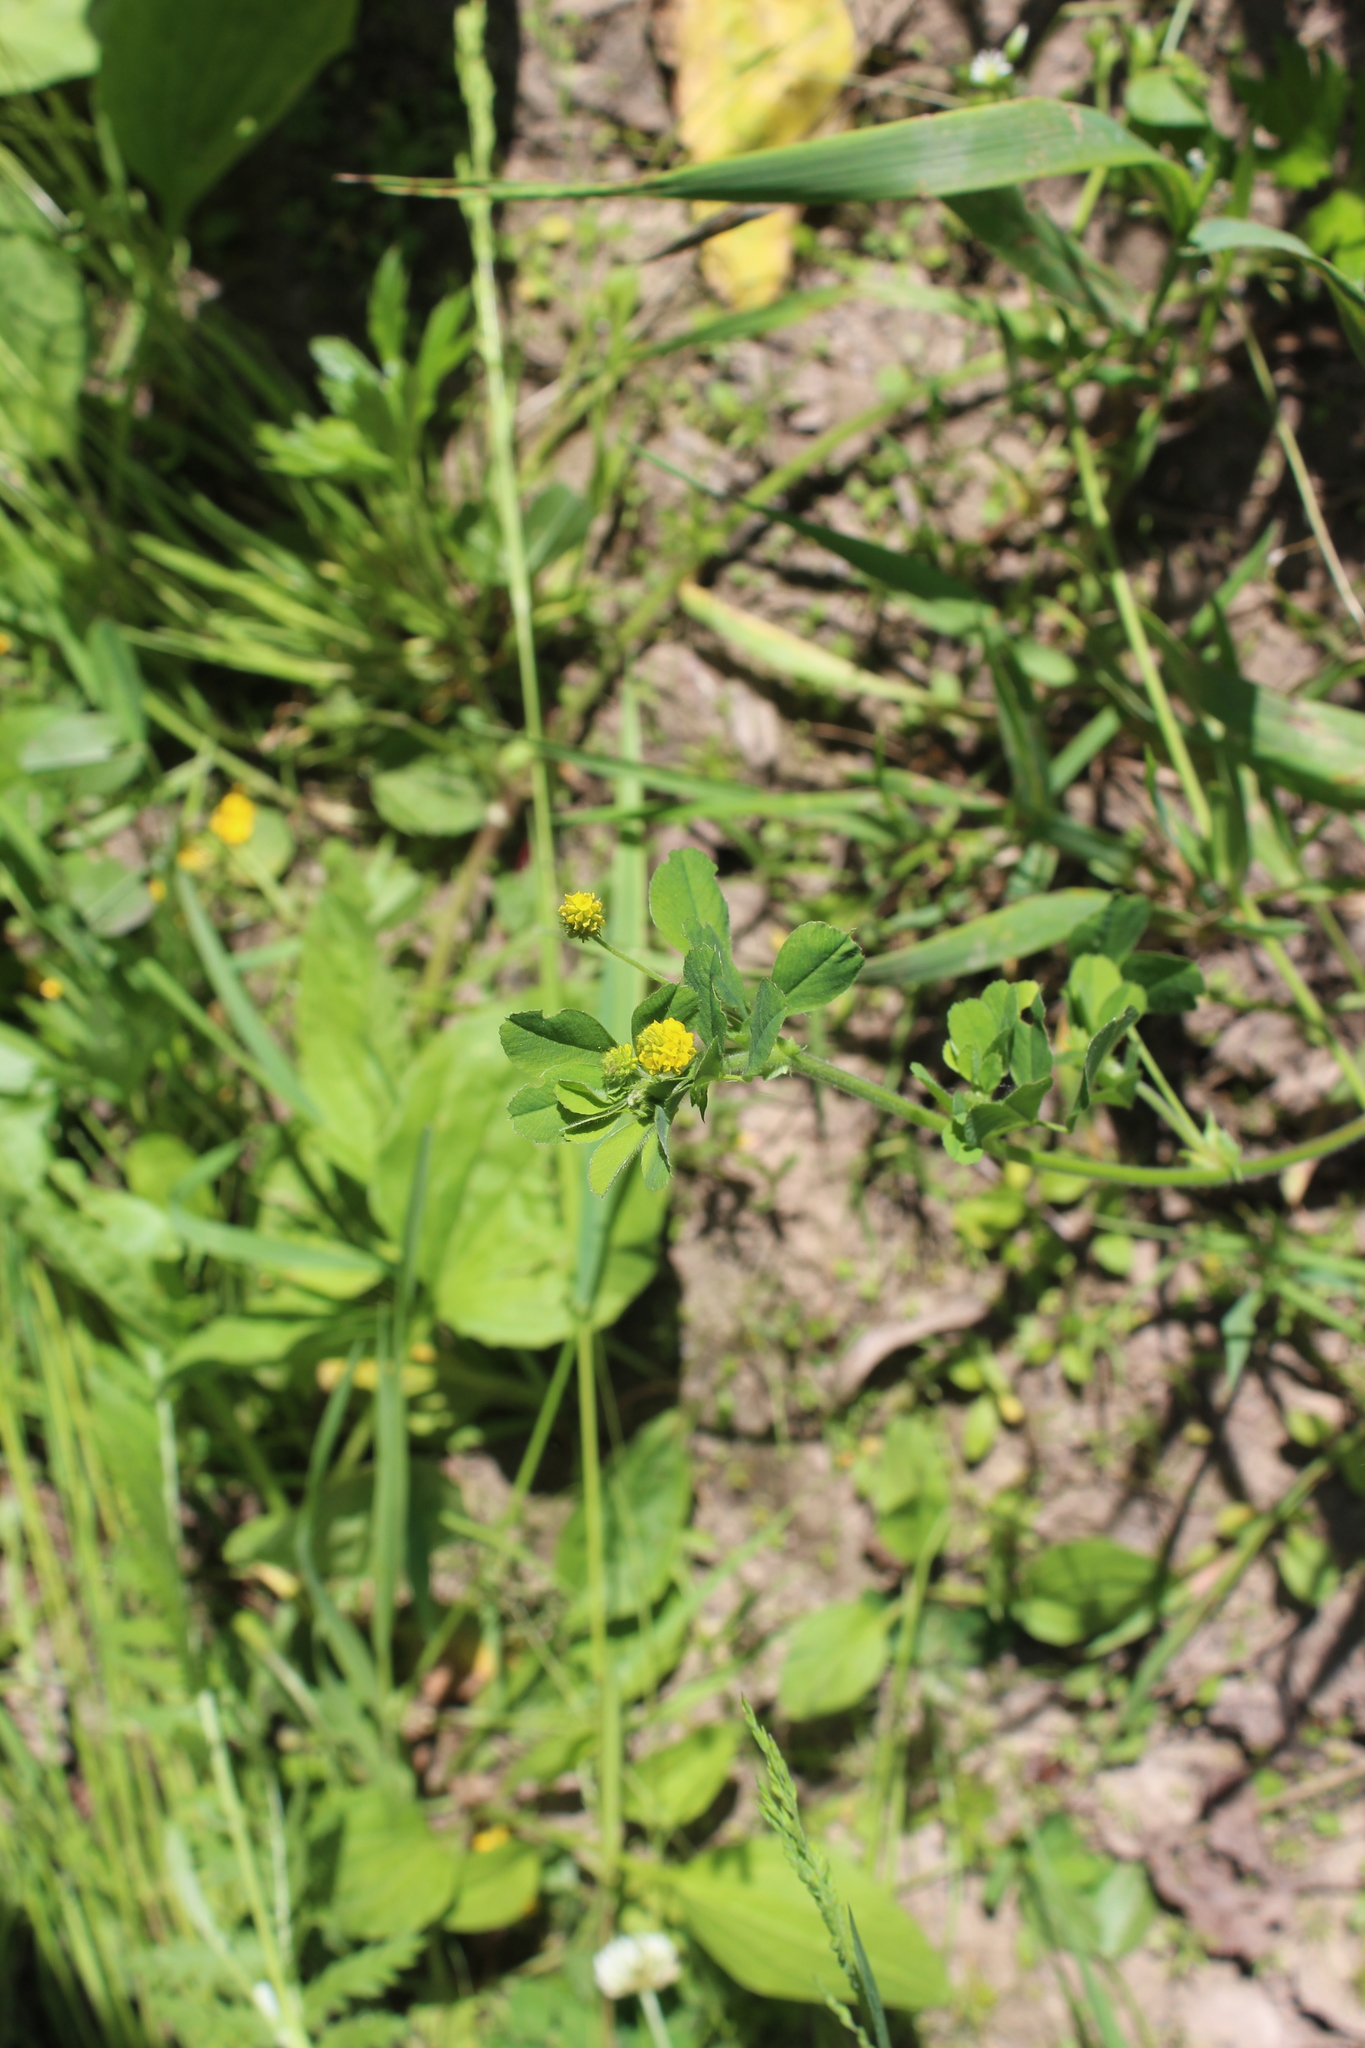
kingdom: Plantae
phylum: Tracheophyta
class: Magnoliopsida
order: Fabales
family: Fabaceae
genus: Medicago
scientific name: Medicago lupulina
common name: Black medick
